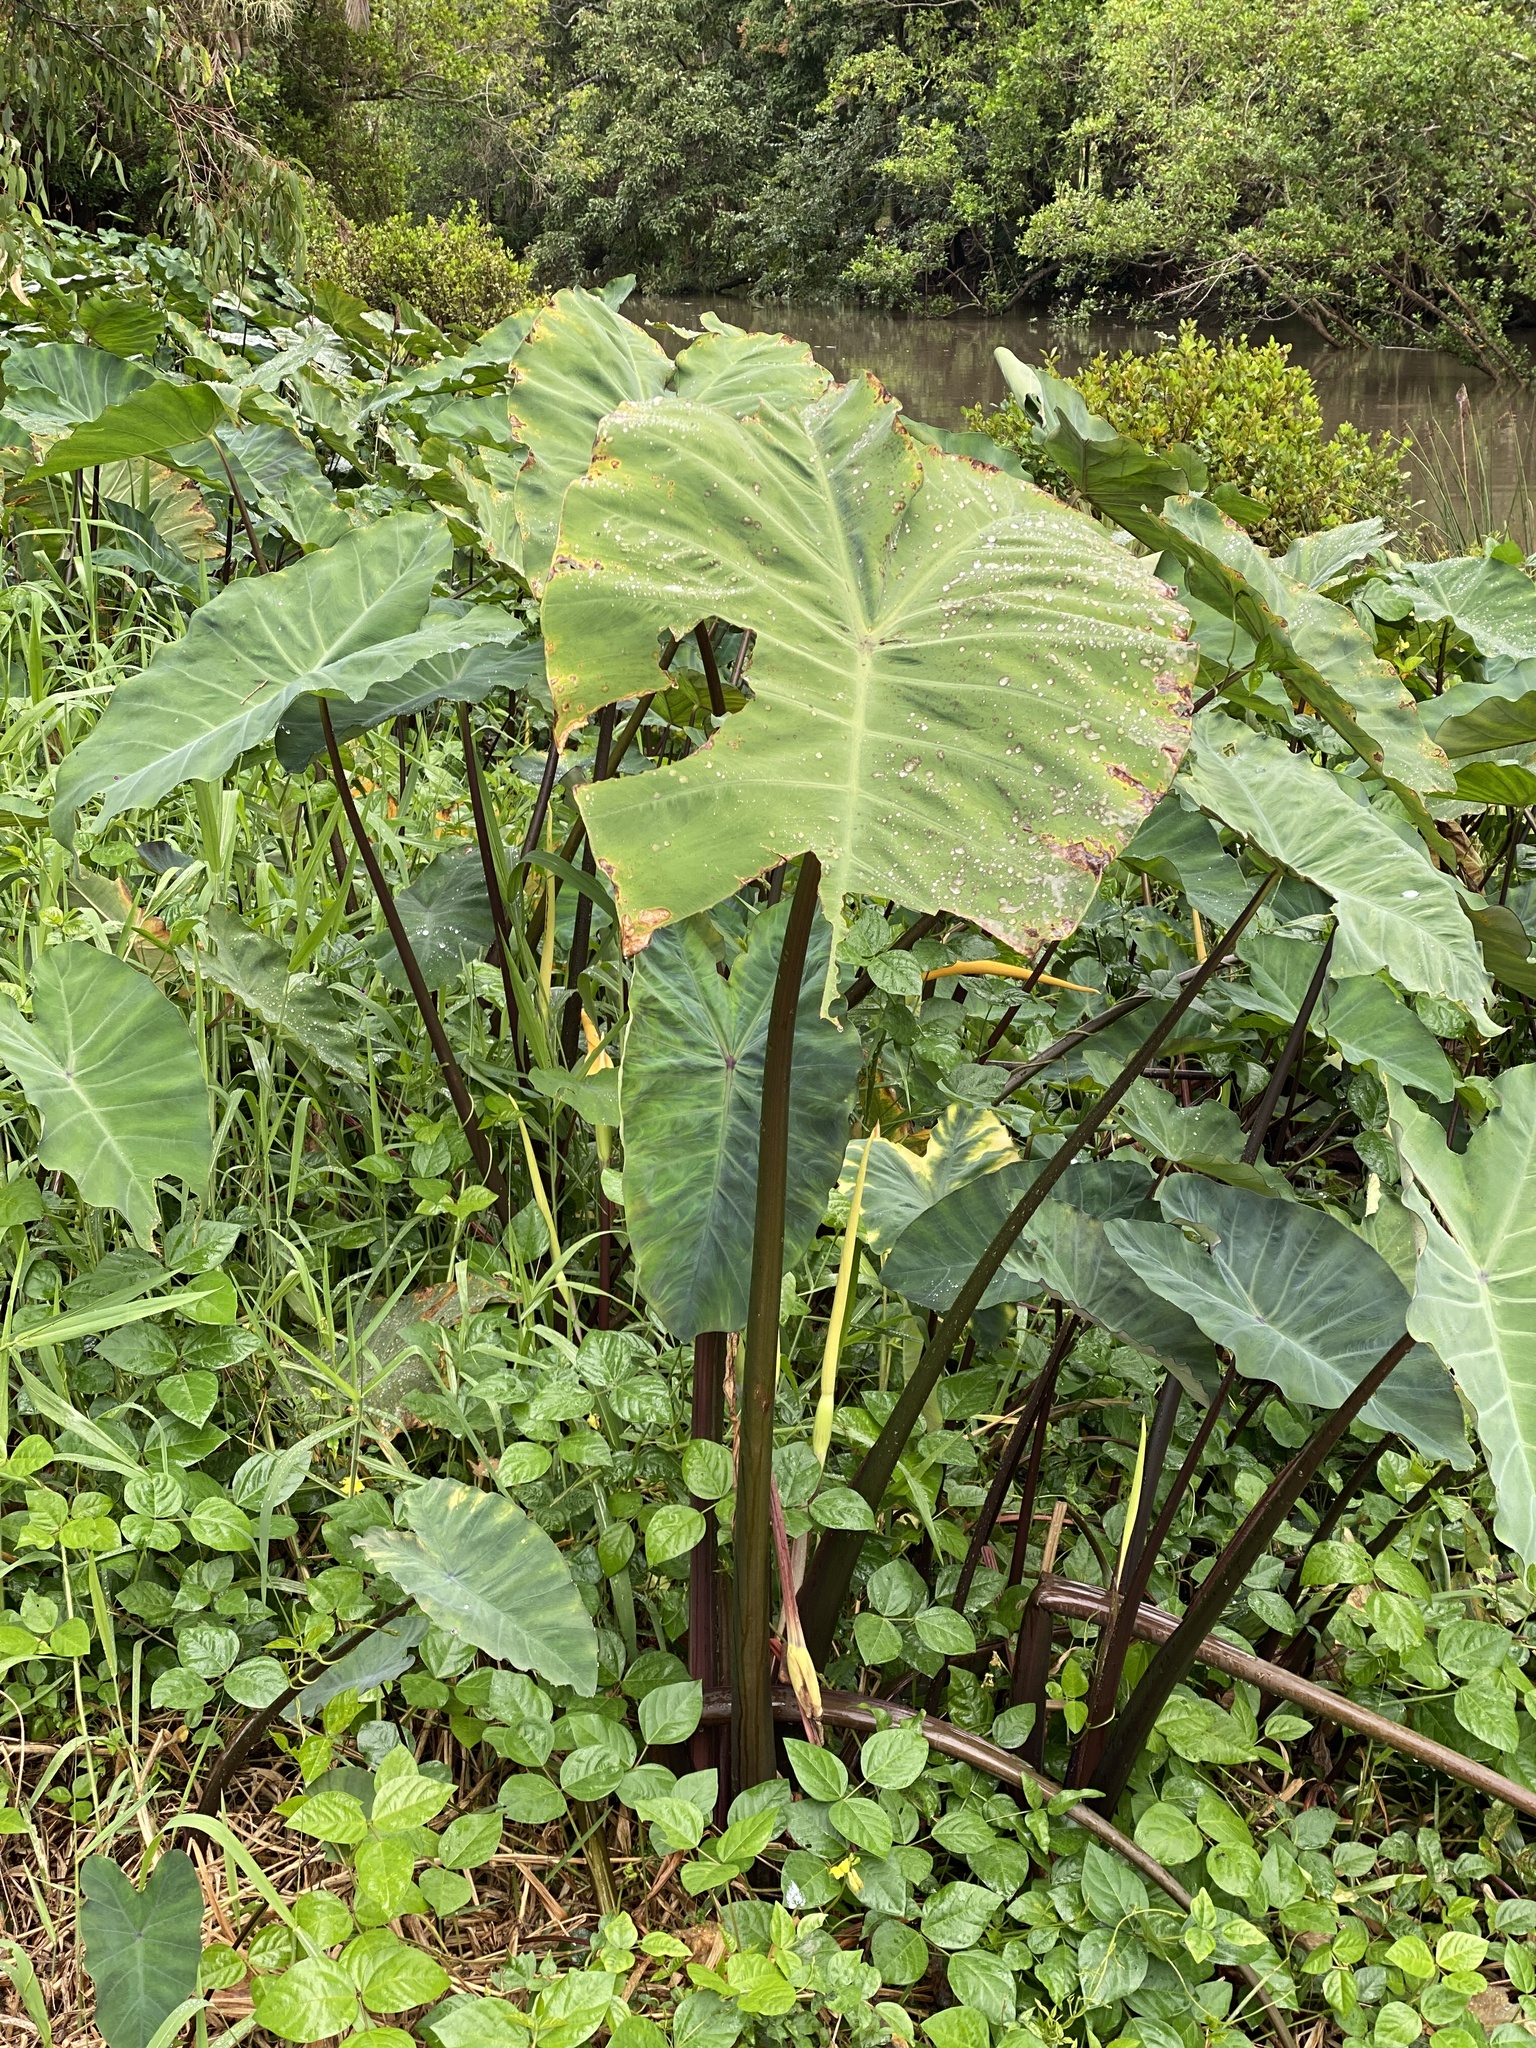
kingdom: Plantae
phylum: Tracheophyta
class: Liliopsida
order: Alismatales
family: Araceae
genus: Colocasia
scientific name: Colocasia esculenta
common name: Taro
